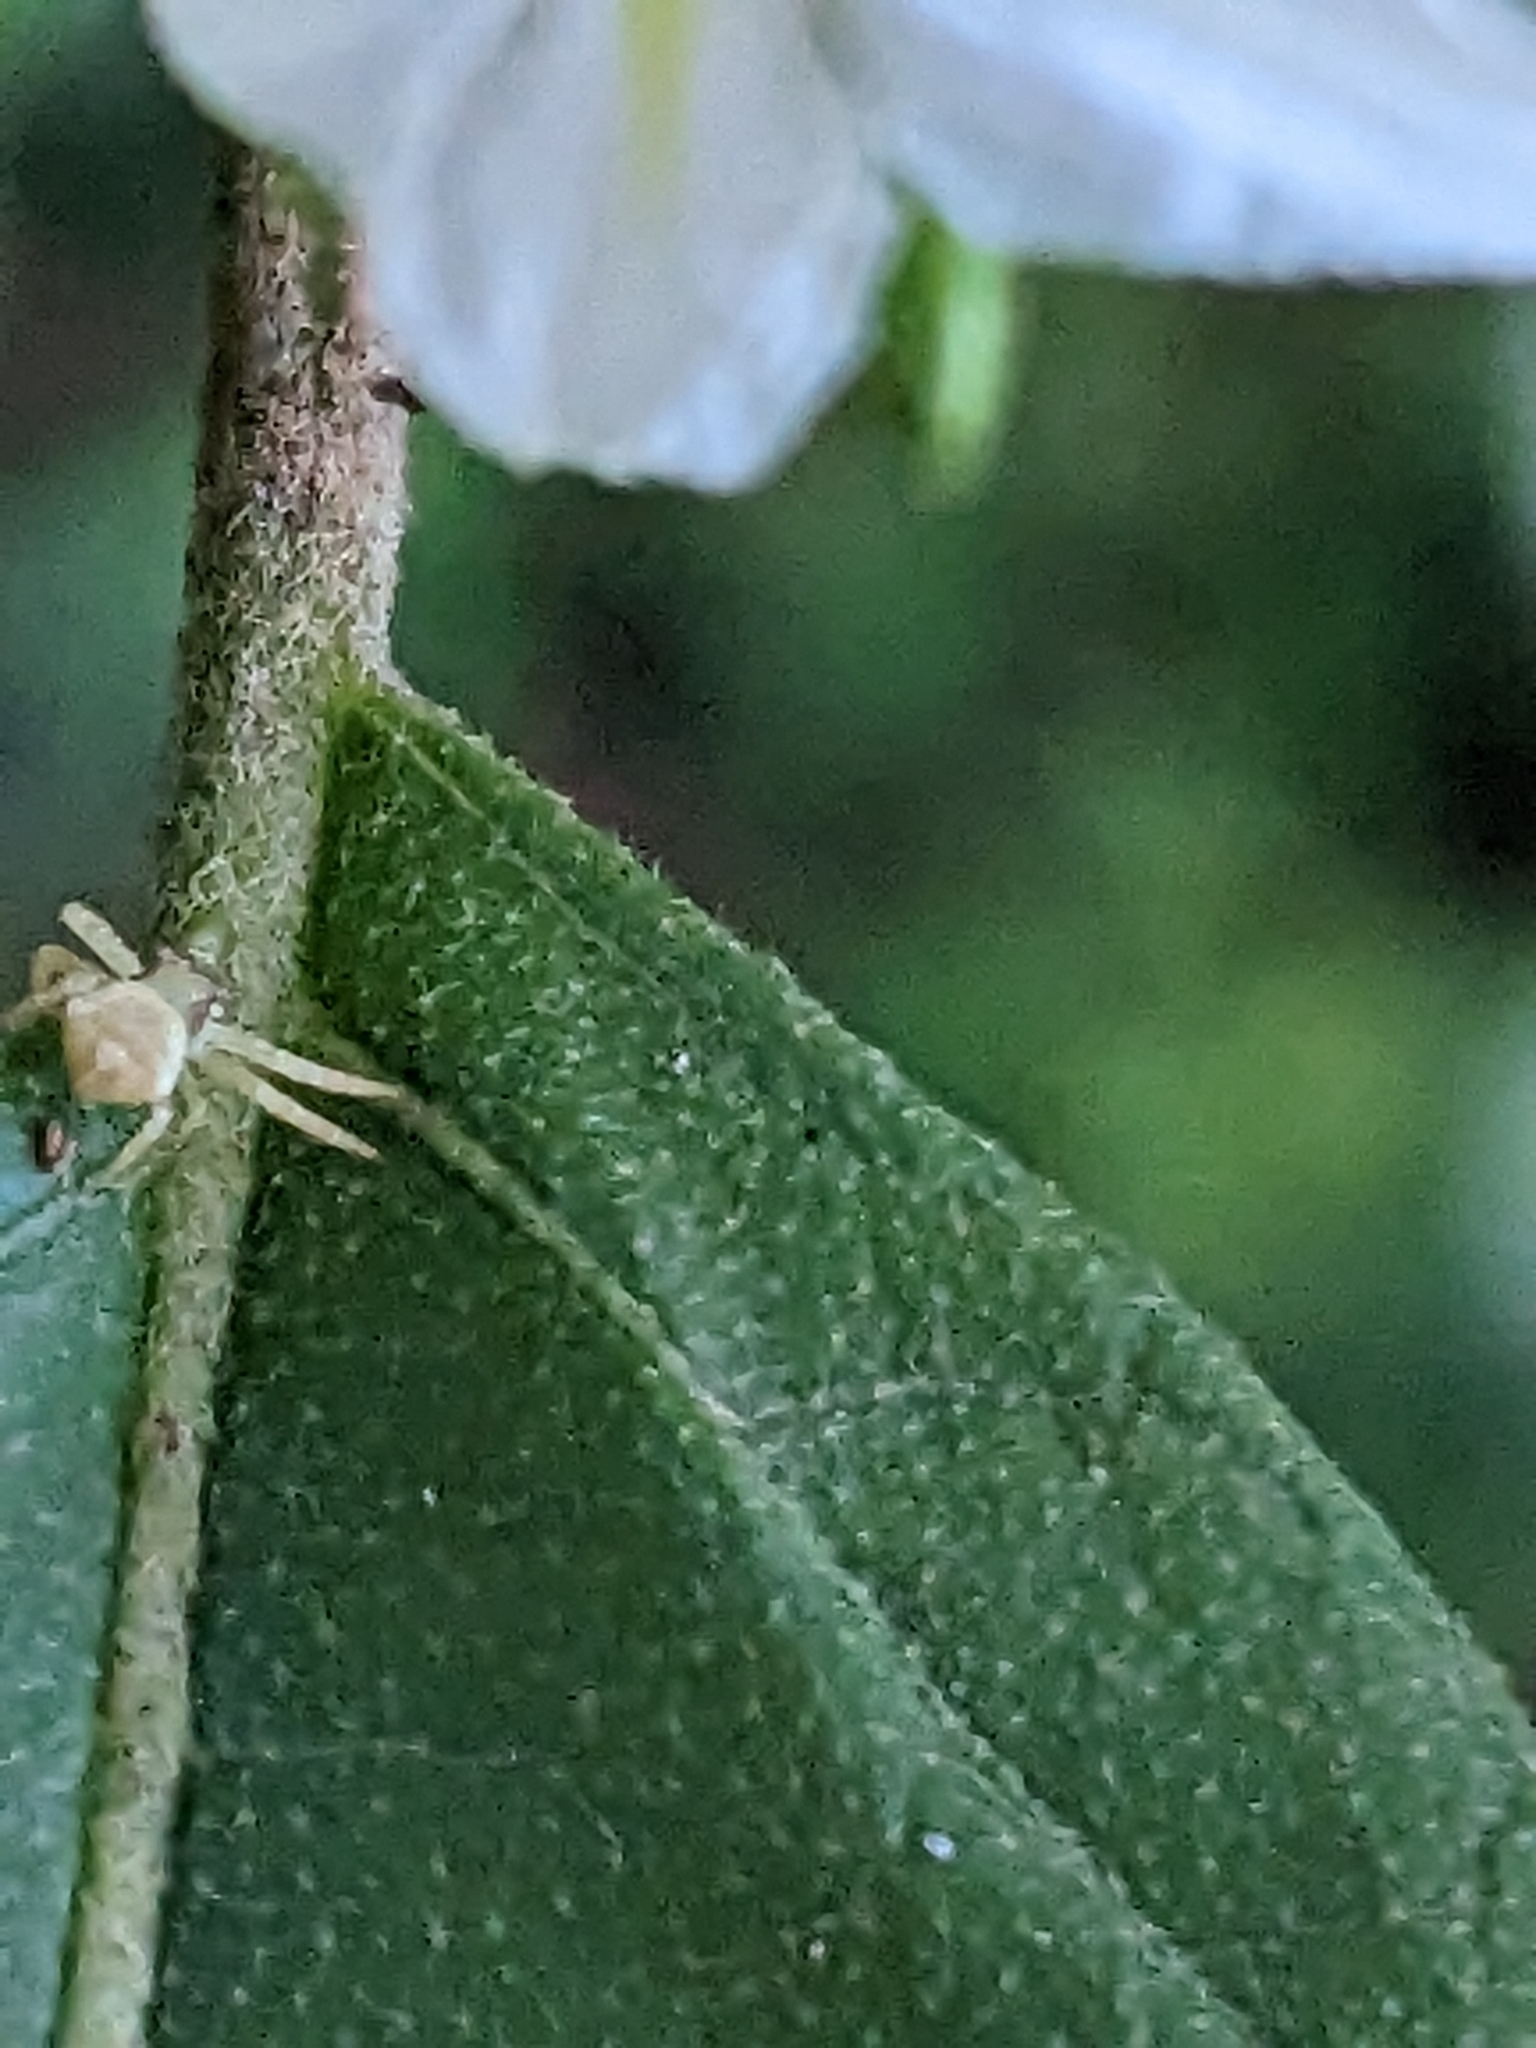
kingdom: Animalia
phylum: Arthropoda
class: Arachnida
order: Araneae
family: Thomisidae
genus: Thomisus
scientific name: Thomisus spectabilis
